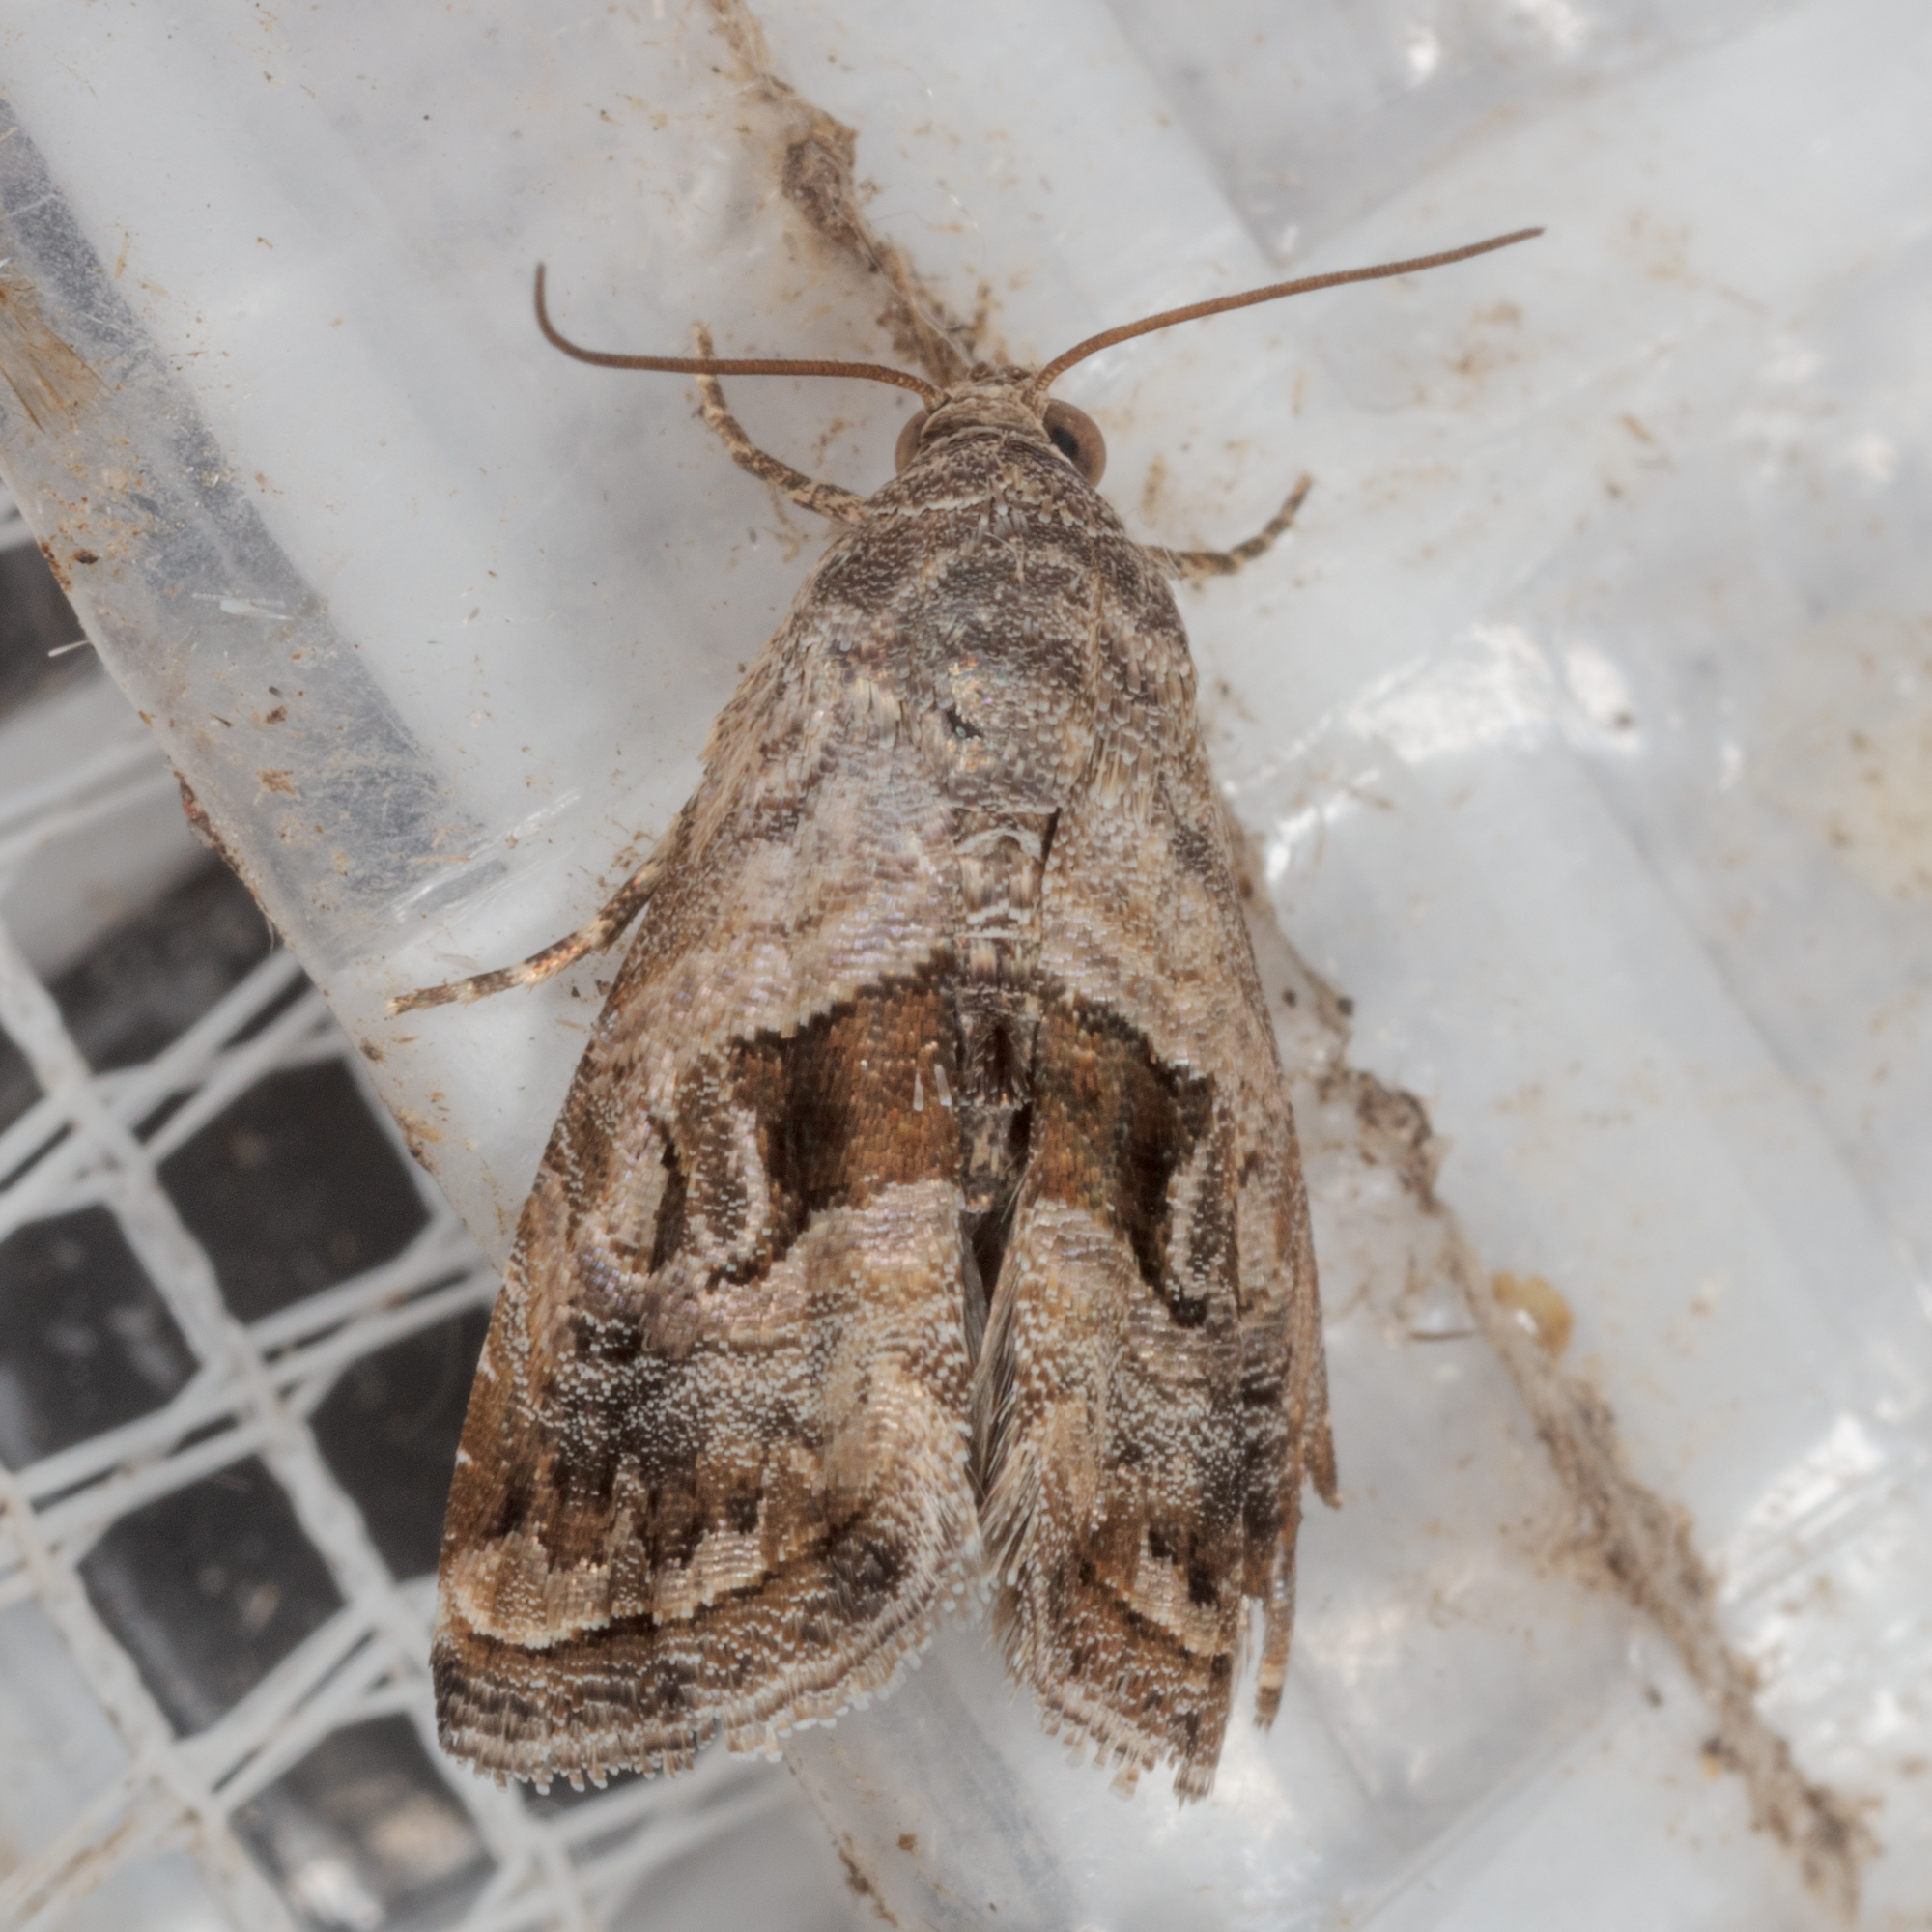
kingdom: Animalia
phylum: Arthropoda
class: Insecta
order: Lepidoptera
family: Noctuidae
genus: Tripudia
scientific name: Tripudia quadrifera
